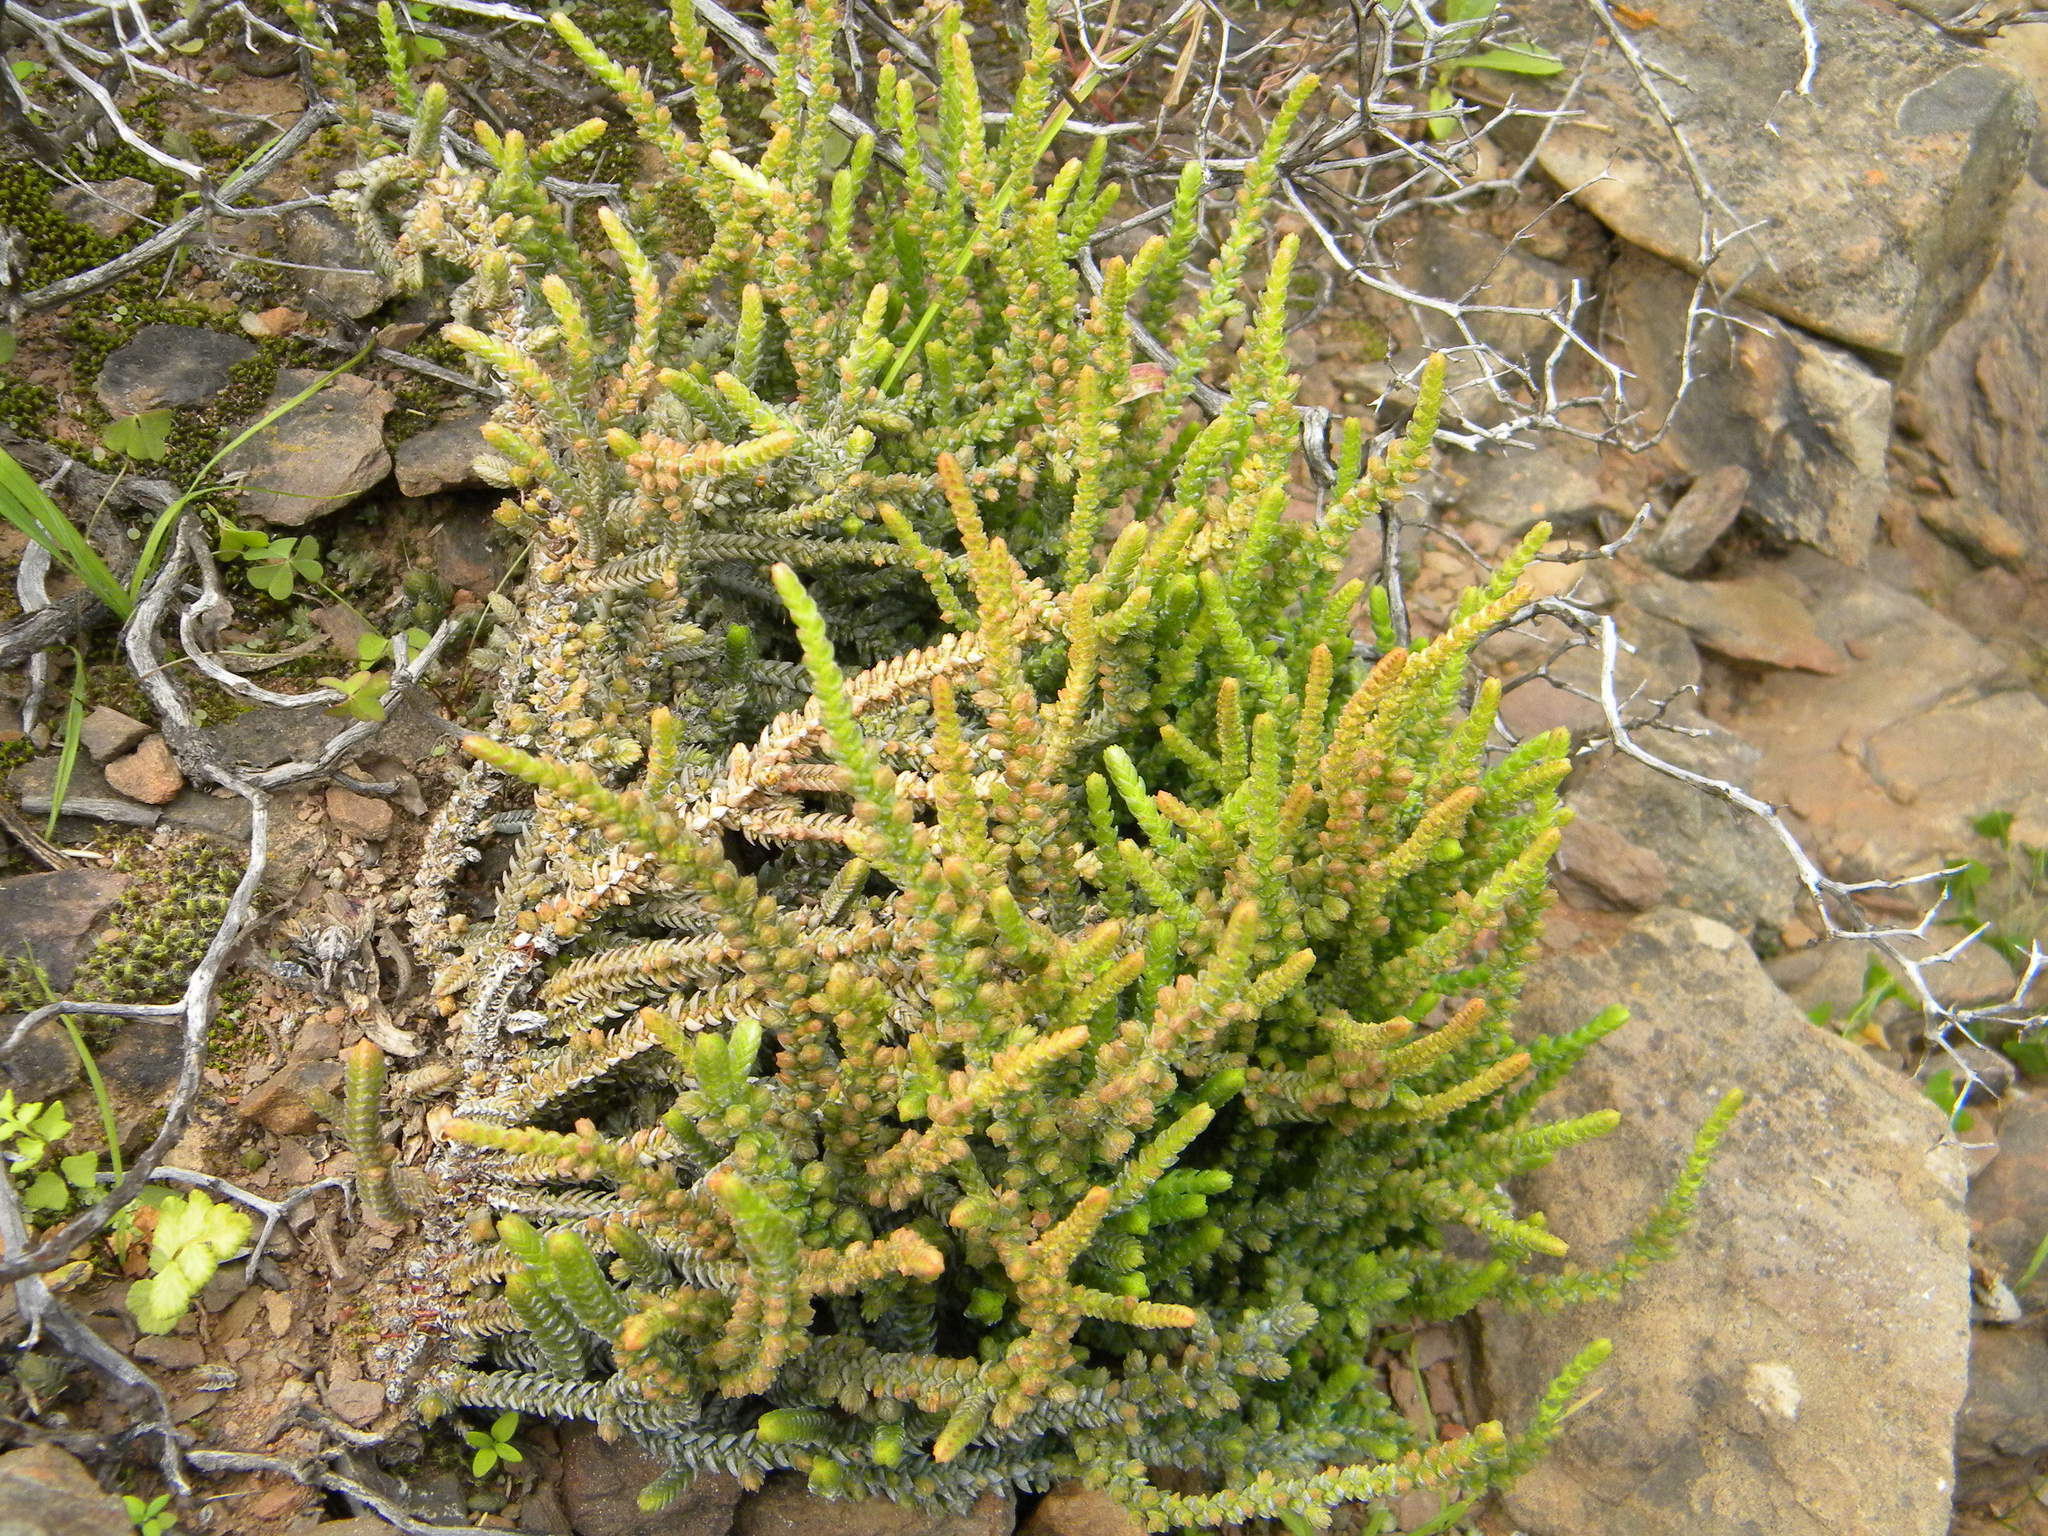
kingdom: Plantae
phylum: Tracheophyta
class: Magnoliopsida
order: Saxifragales
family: Crassulaceae
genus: Crassula
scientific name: Crassula muscosa
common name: Toy-cypress
